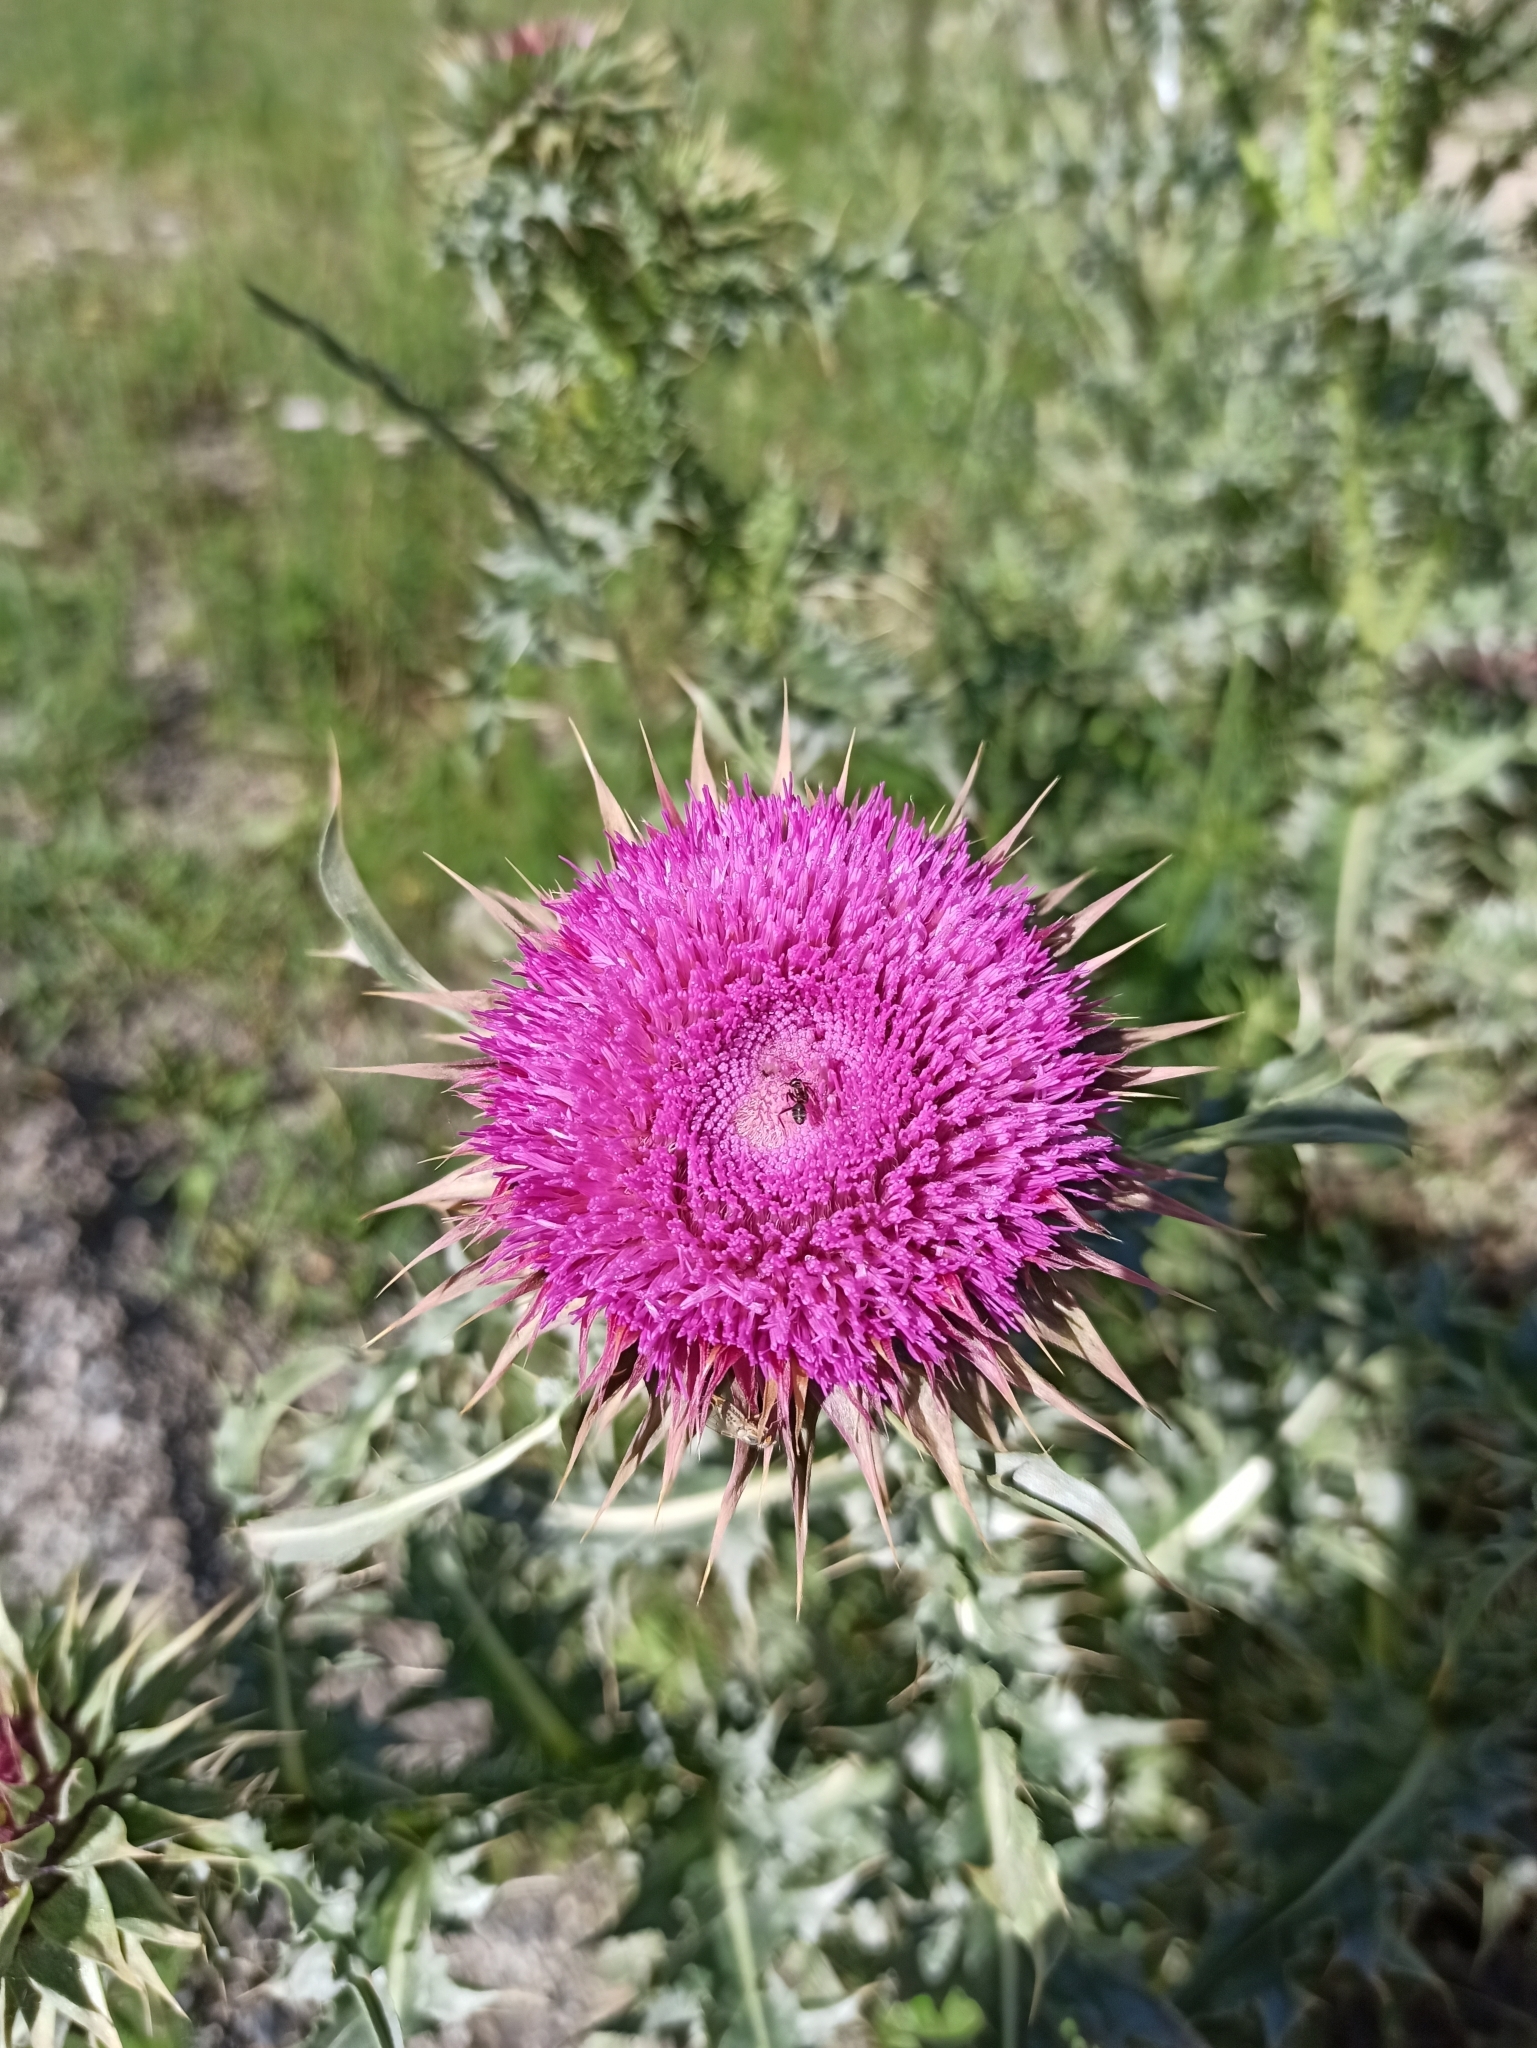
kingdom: Plantae
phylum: Tracheophyta
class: Magnoliopsida
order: Asterales
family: Asteraceae
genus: Carduus
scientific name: Carduus nutans
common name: Musk thistle
